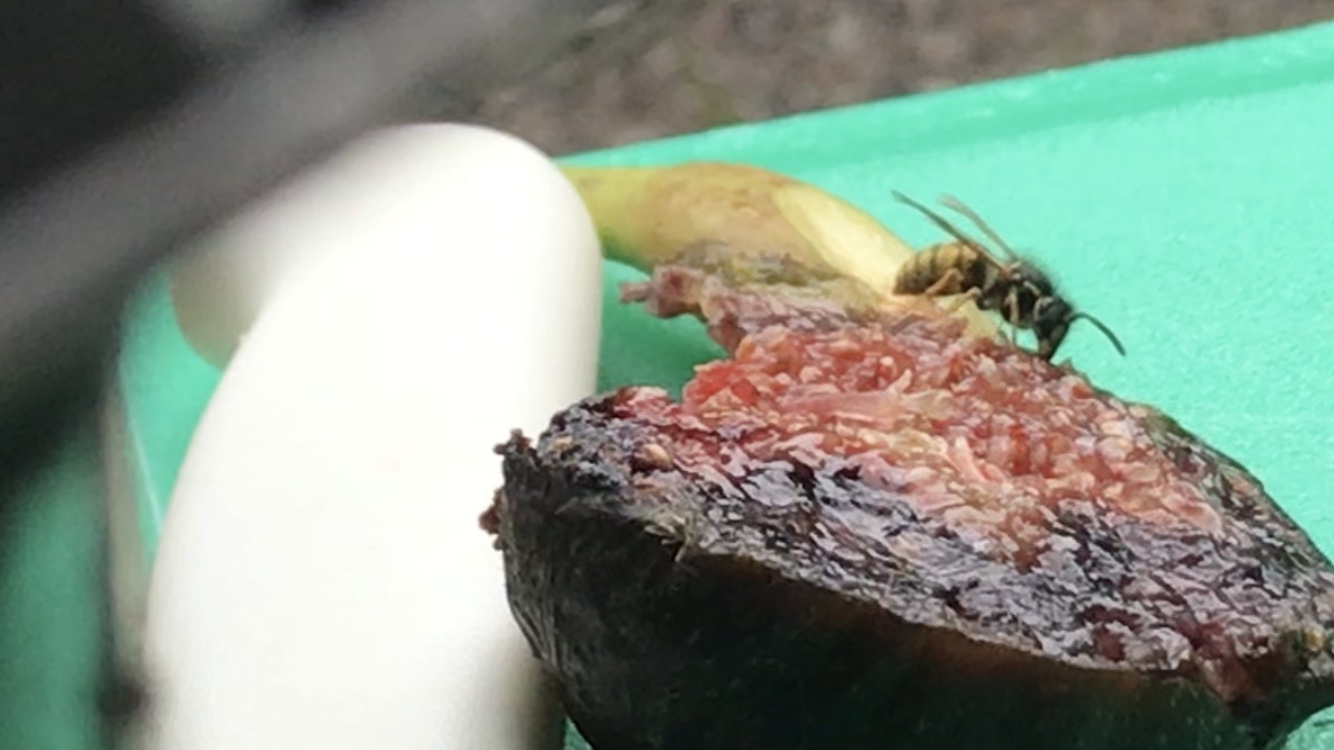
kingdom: Animalia
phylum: Arthropoda
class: Insecta
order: Hymenoptera
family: Vespidae
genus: Vespula
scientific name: Vespula vulgaris
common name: Common wasp
